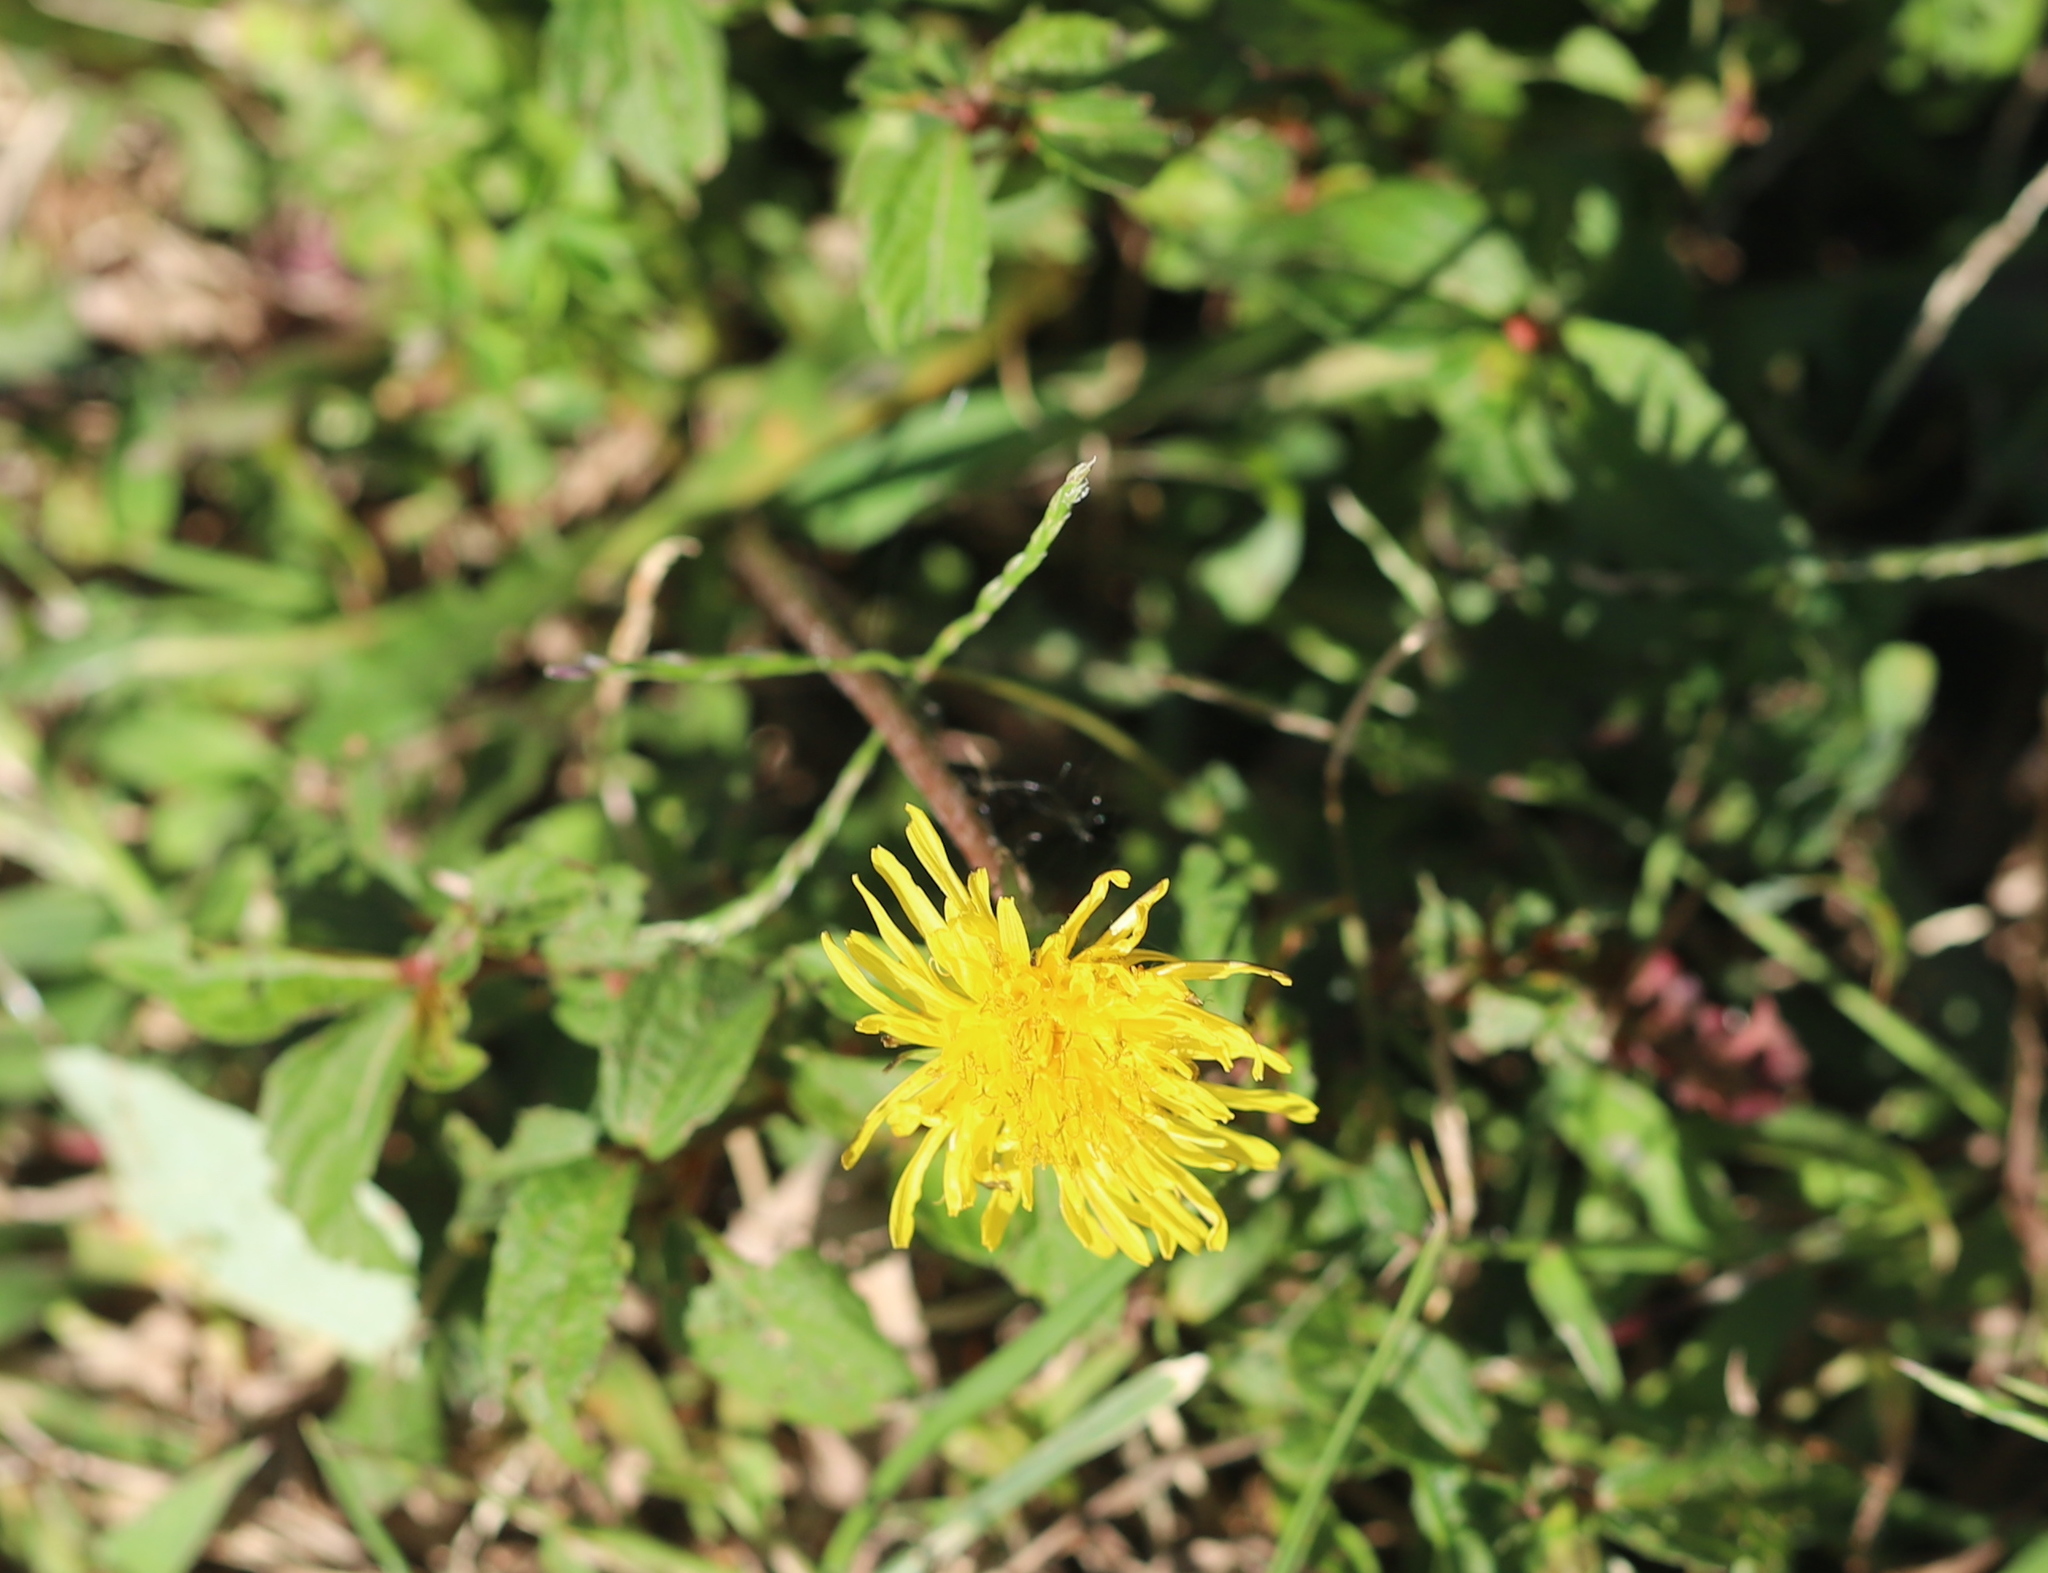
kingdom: Plantae
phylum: Tracheophyta
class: Magnoliopsida
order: Asterales
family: Asteraceae
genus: Taraxacum
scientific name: Taraxacum officinale
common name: Common dandelion
